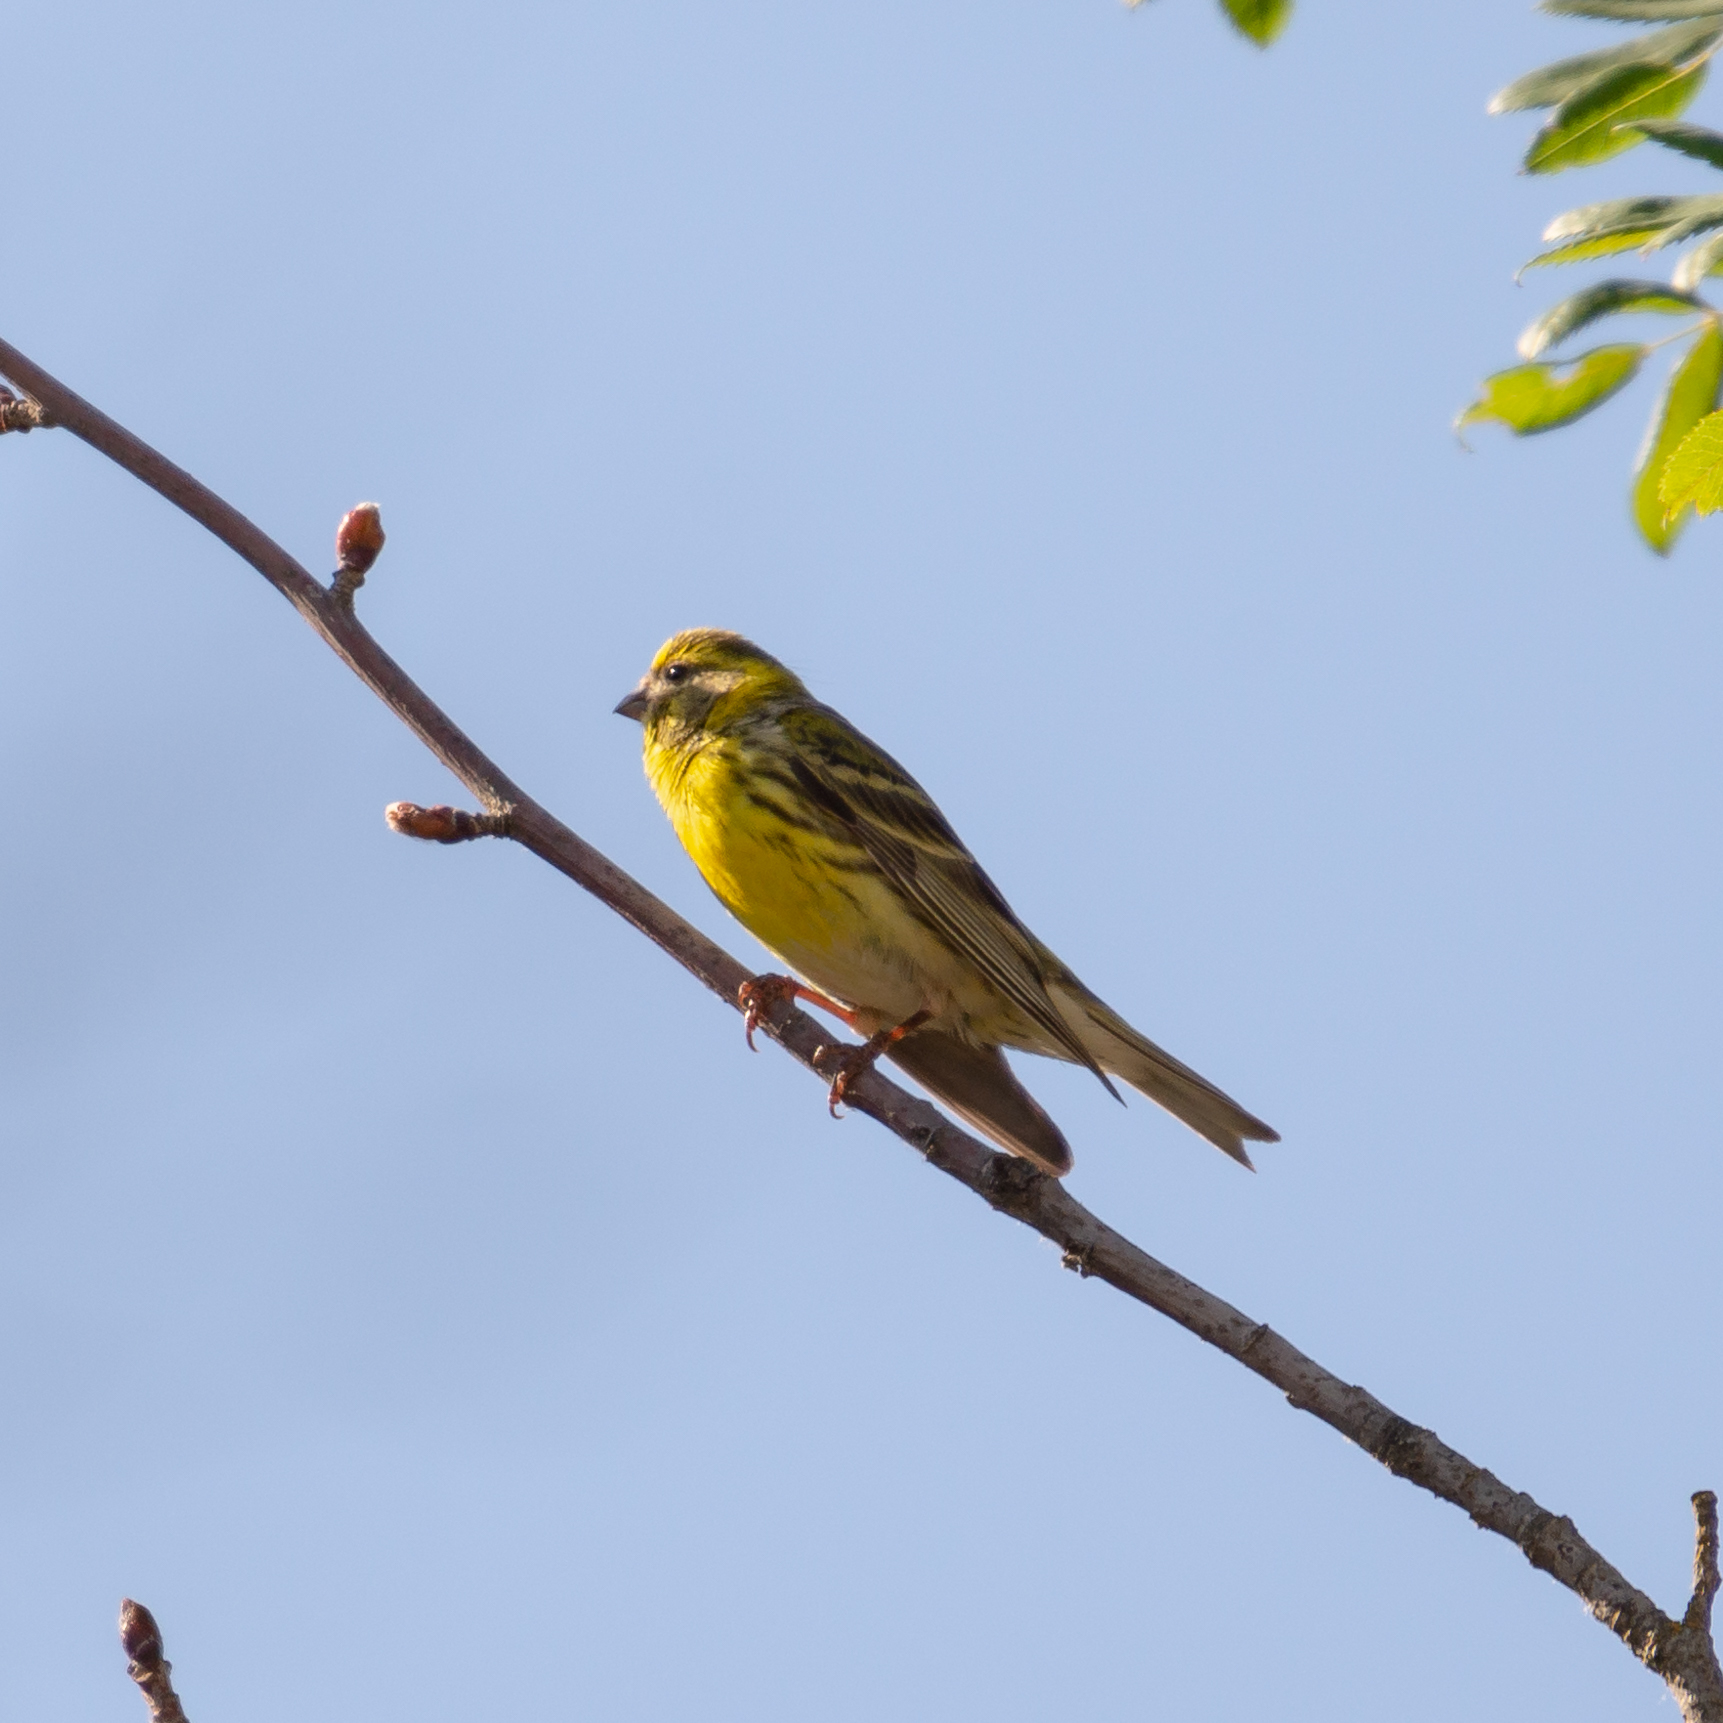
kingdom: Animalia
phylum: Chordata
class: Aves
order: Passeriformes
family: Fringillidae
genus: Serinus
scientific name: Serinus serinus
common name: European serin
